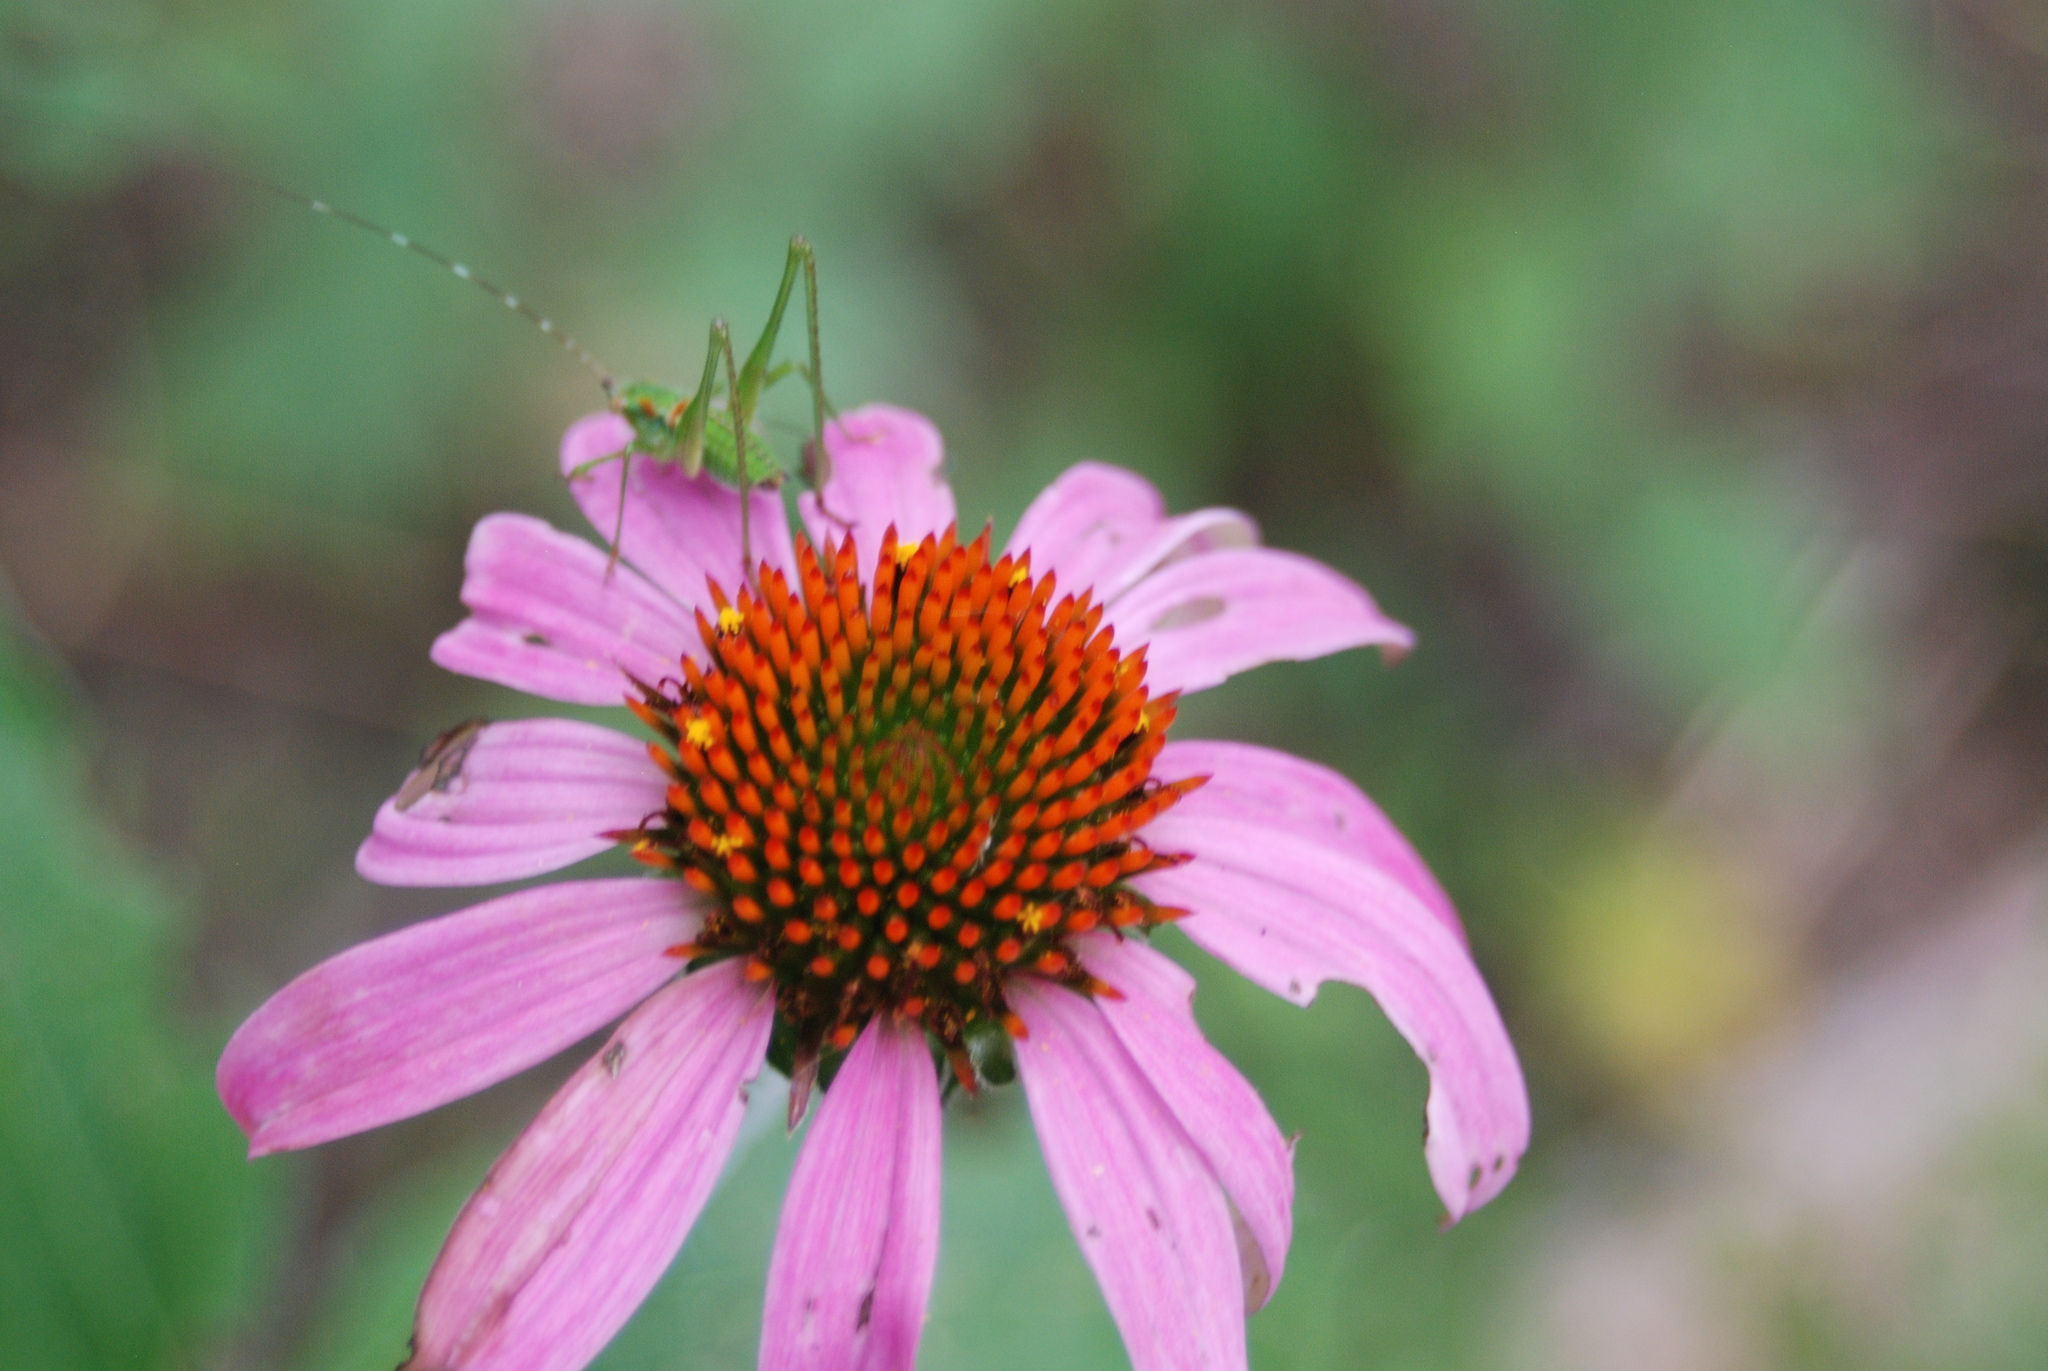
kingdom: Animalia
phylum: Arthropoda
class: Insecta
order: Orthoptera
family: Tettigoniidae
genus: Scudderia
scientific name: Scudderia
